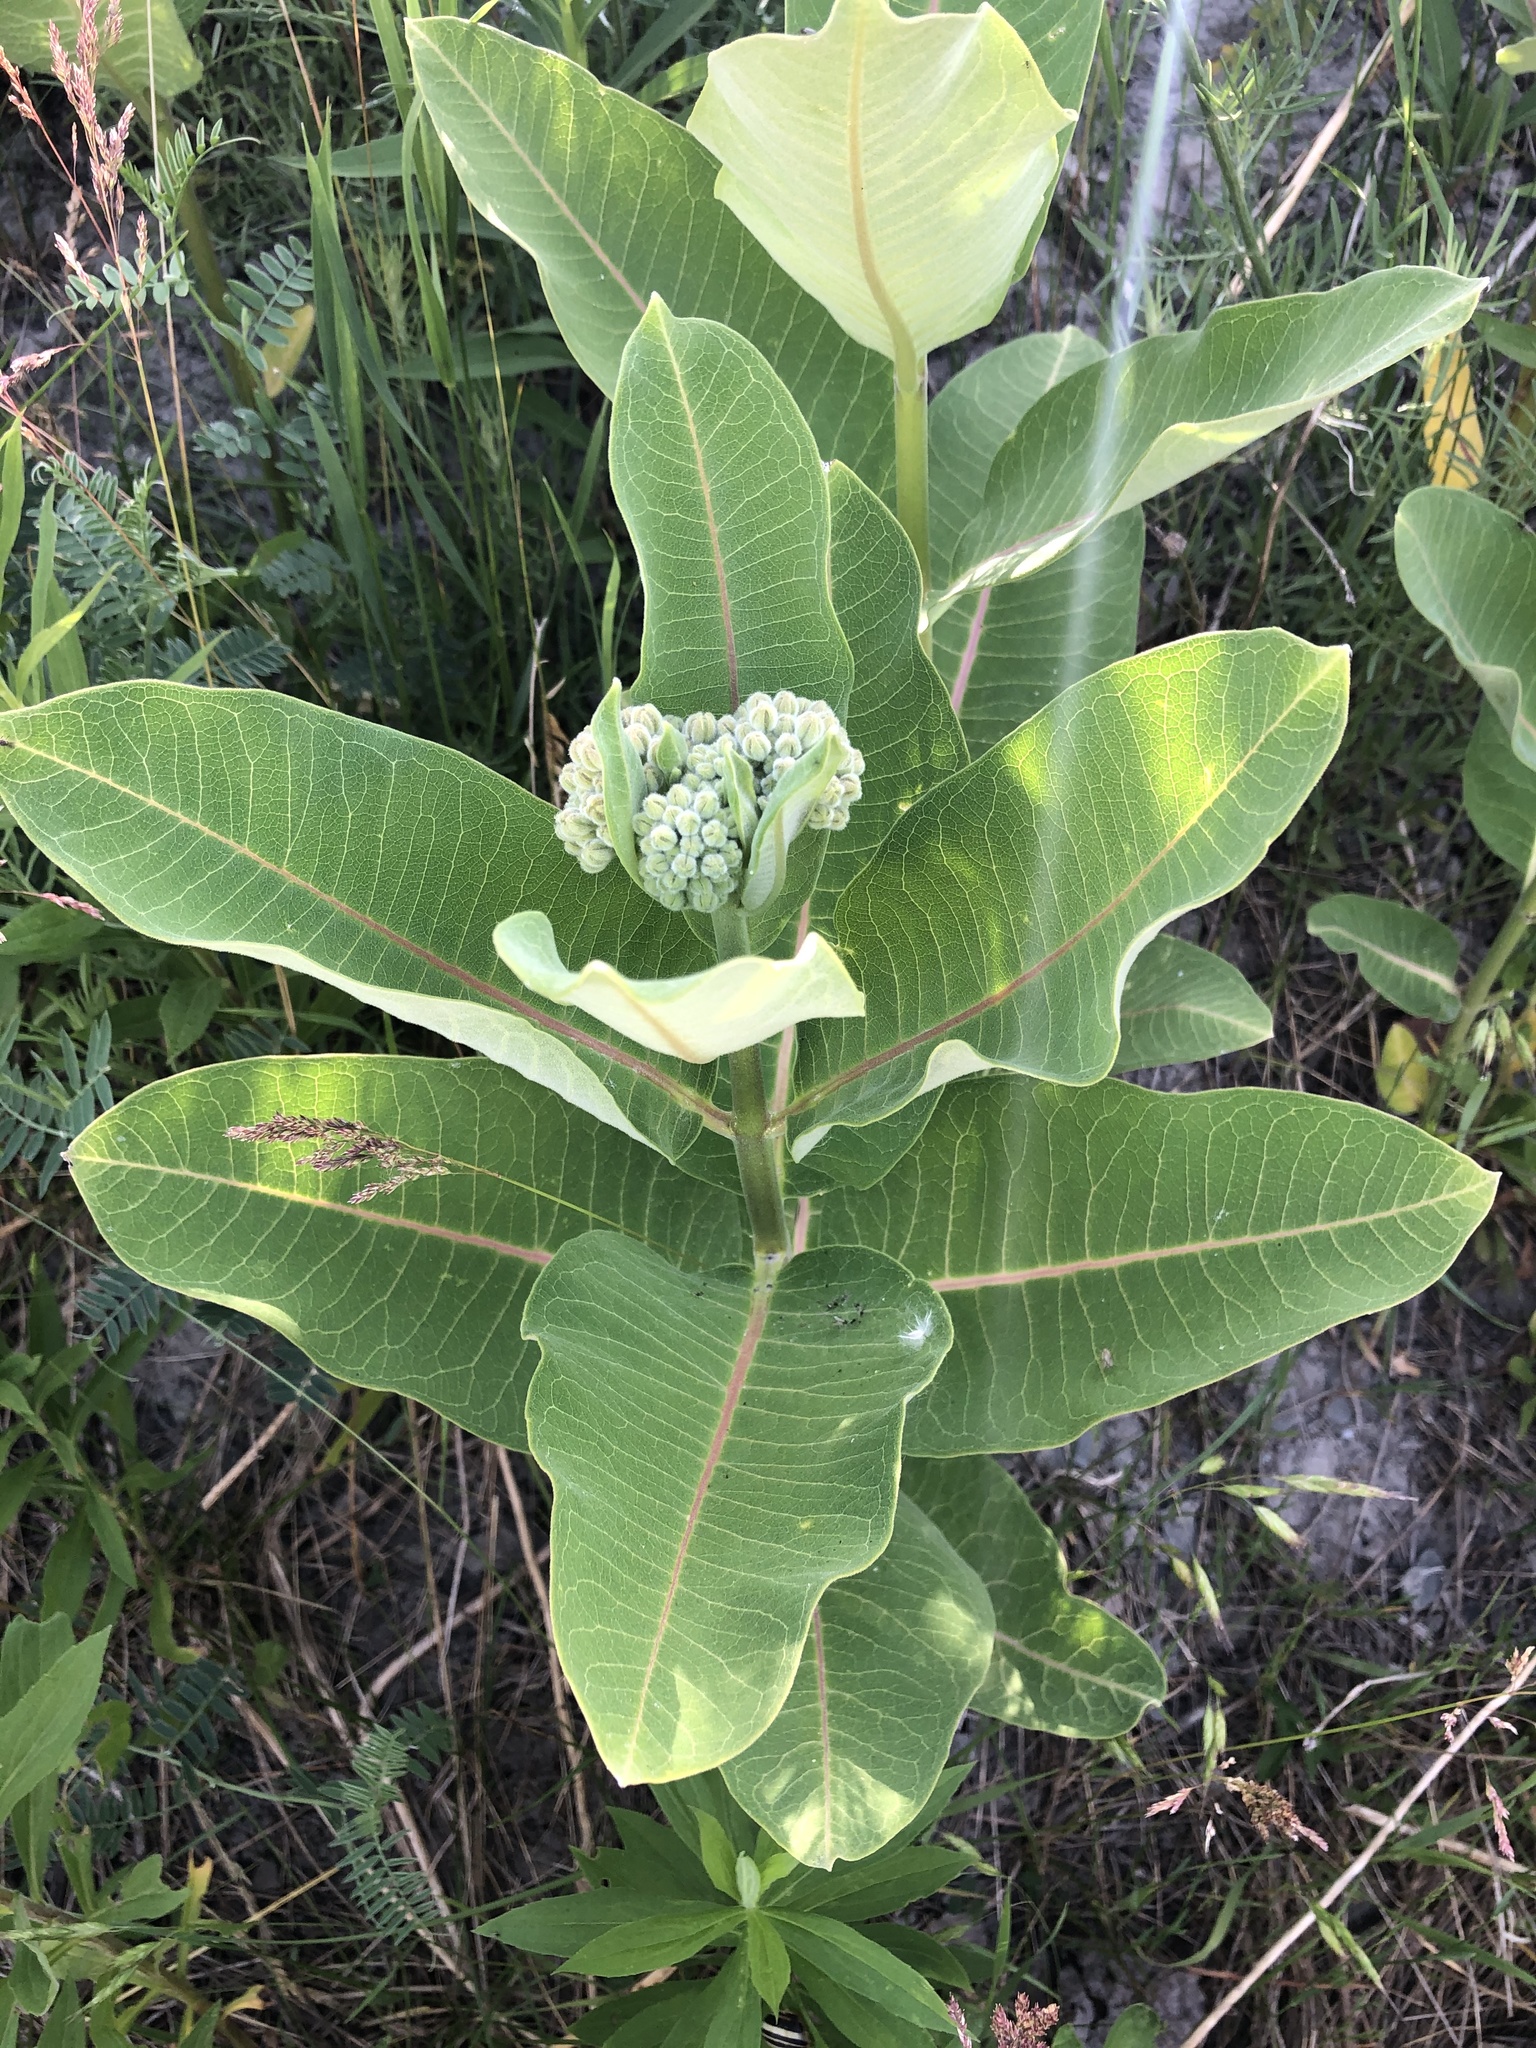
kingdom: Plantae
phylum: Tracheophyta
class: Magnoliopsida
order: Gentianales
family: Apocynaceae
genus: Asclepias
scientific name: Asclepias syriaca
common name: Common milkweed
